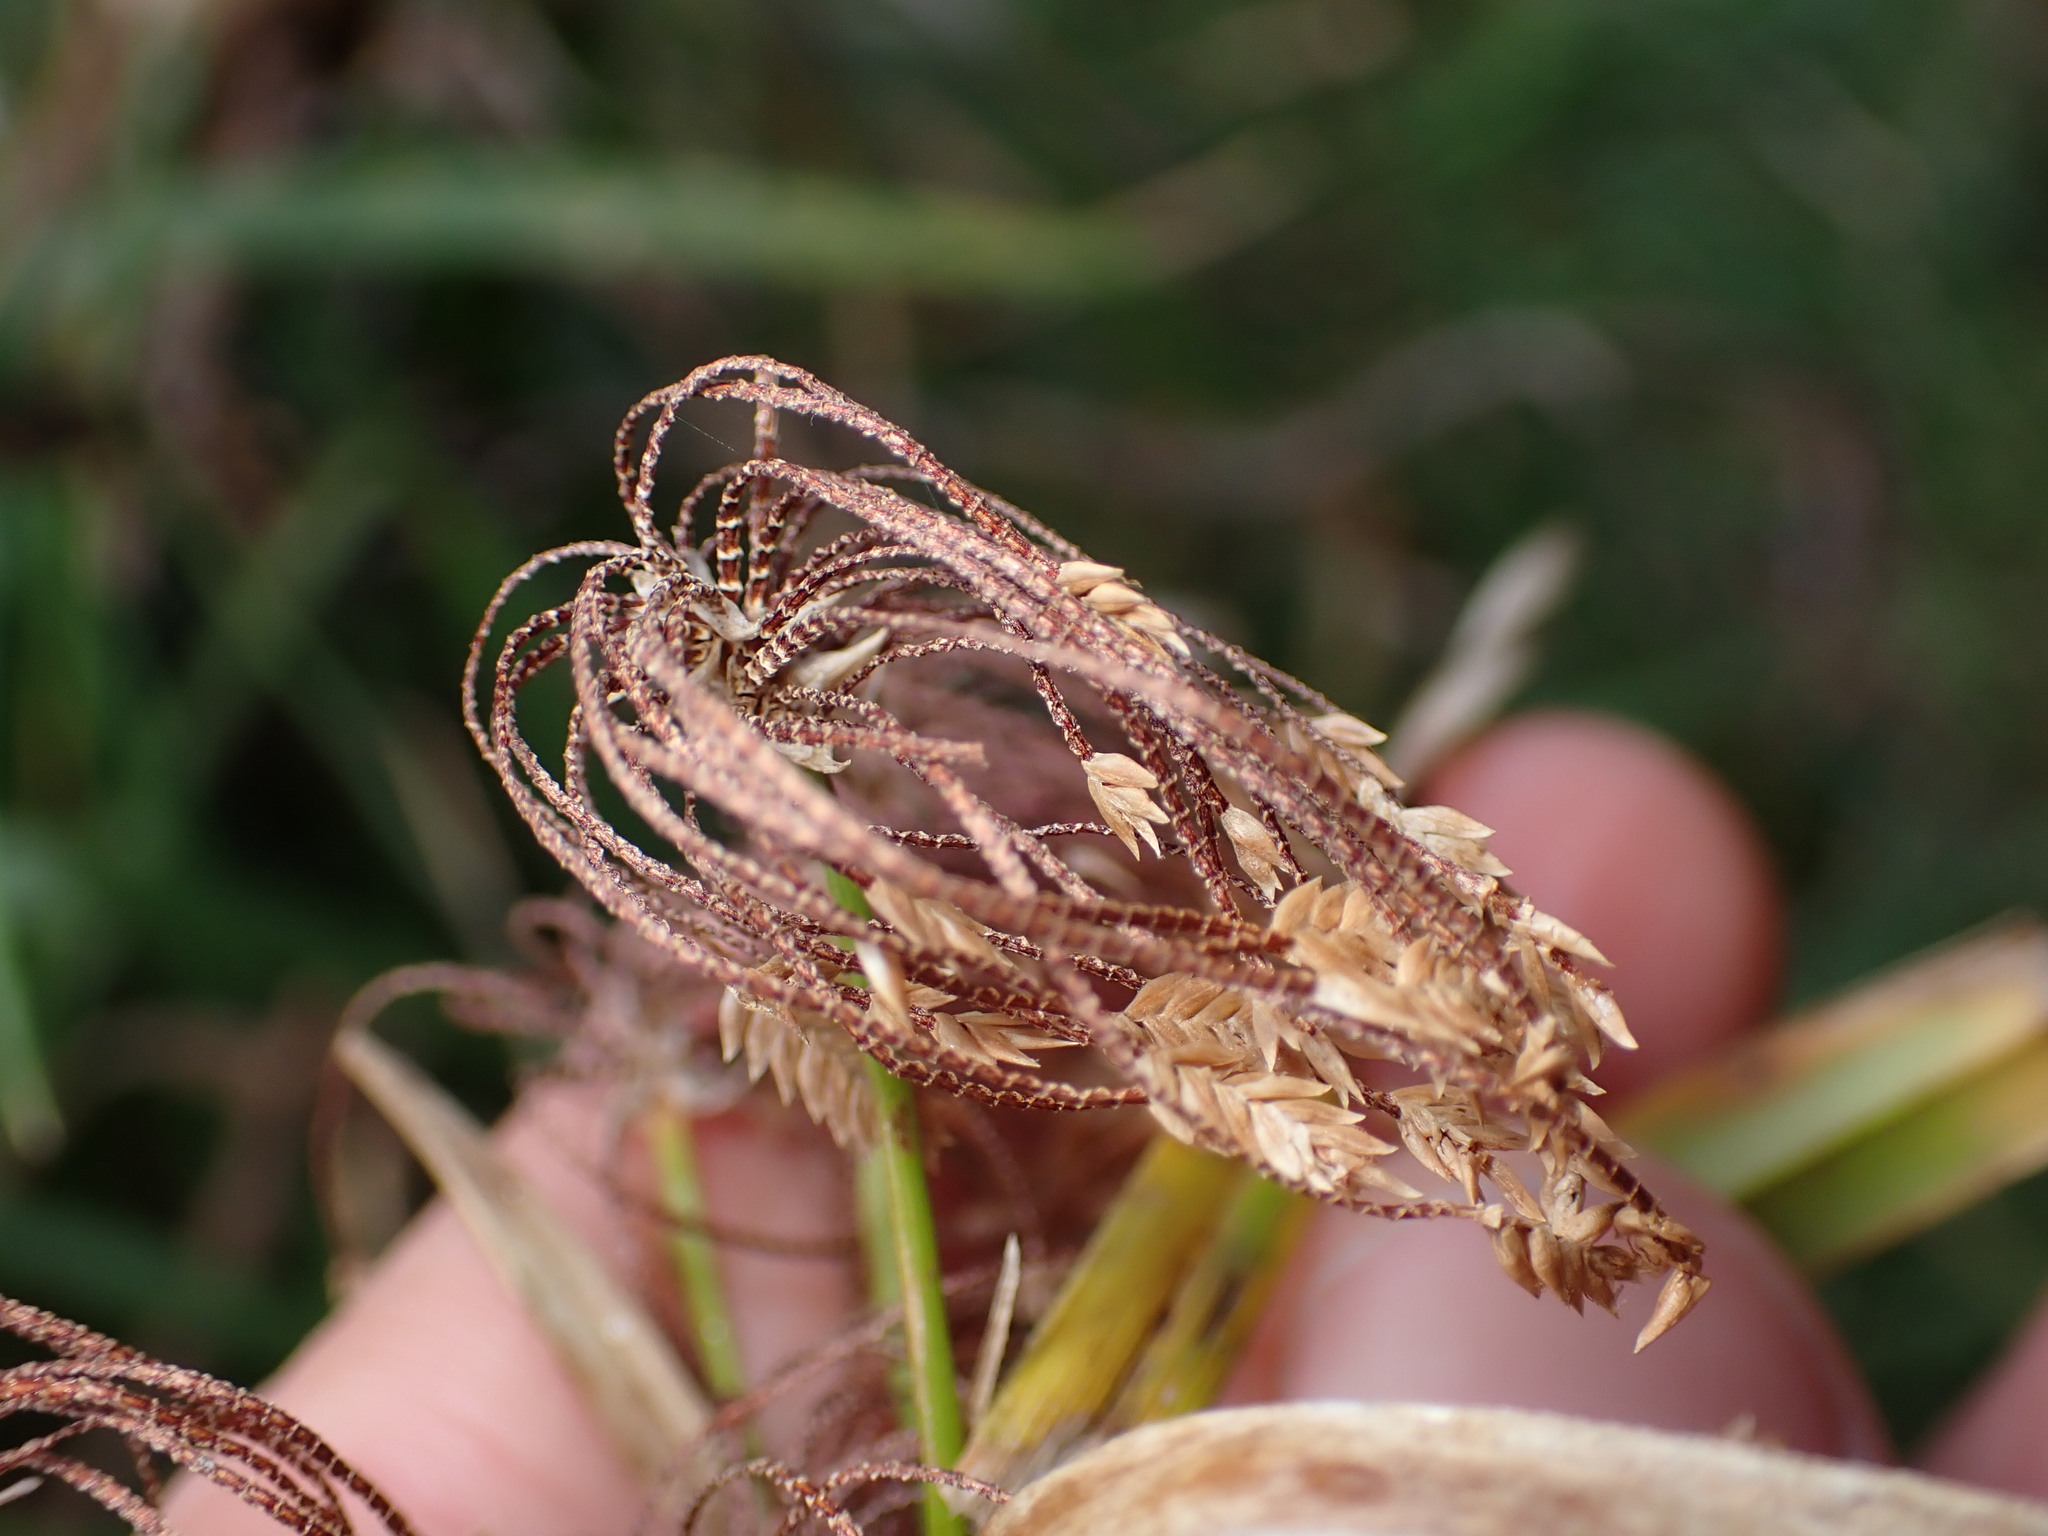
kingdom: Plantae
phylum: Tracheophyta
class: Liliopsida
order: Poales
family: Cyperaceae
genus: Cyperus
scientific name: Cyperus ustulatus
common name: Giant umbrella-sedge
